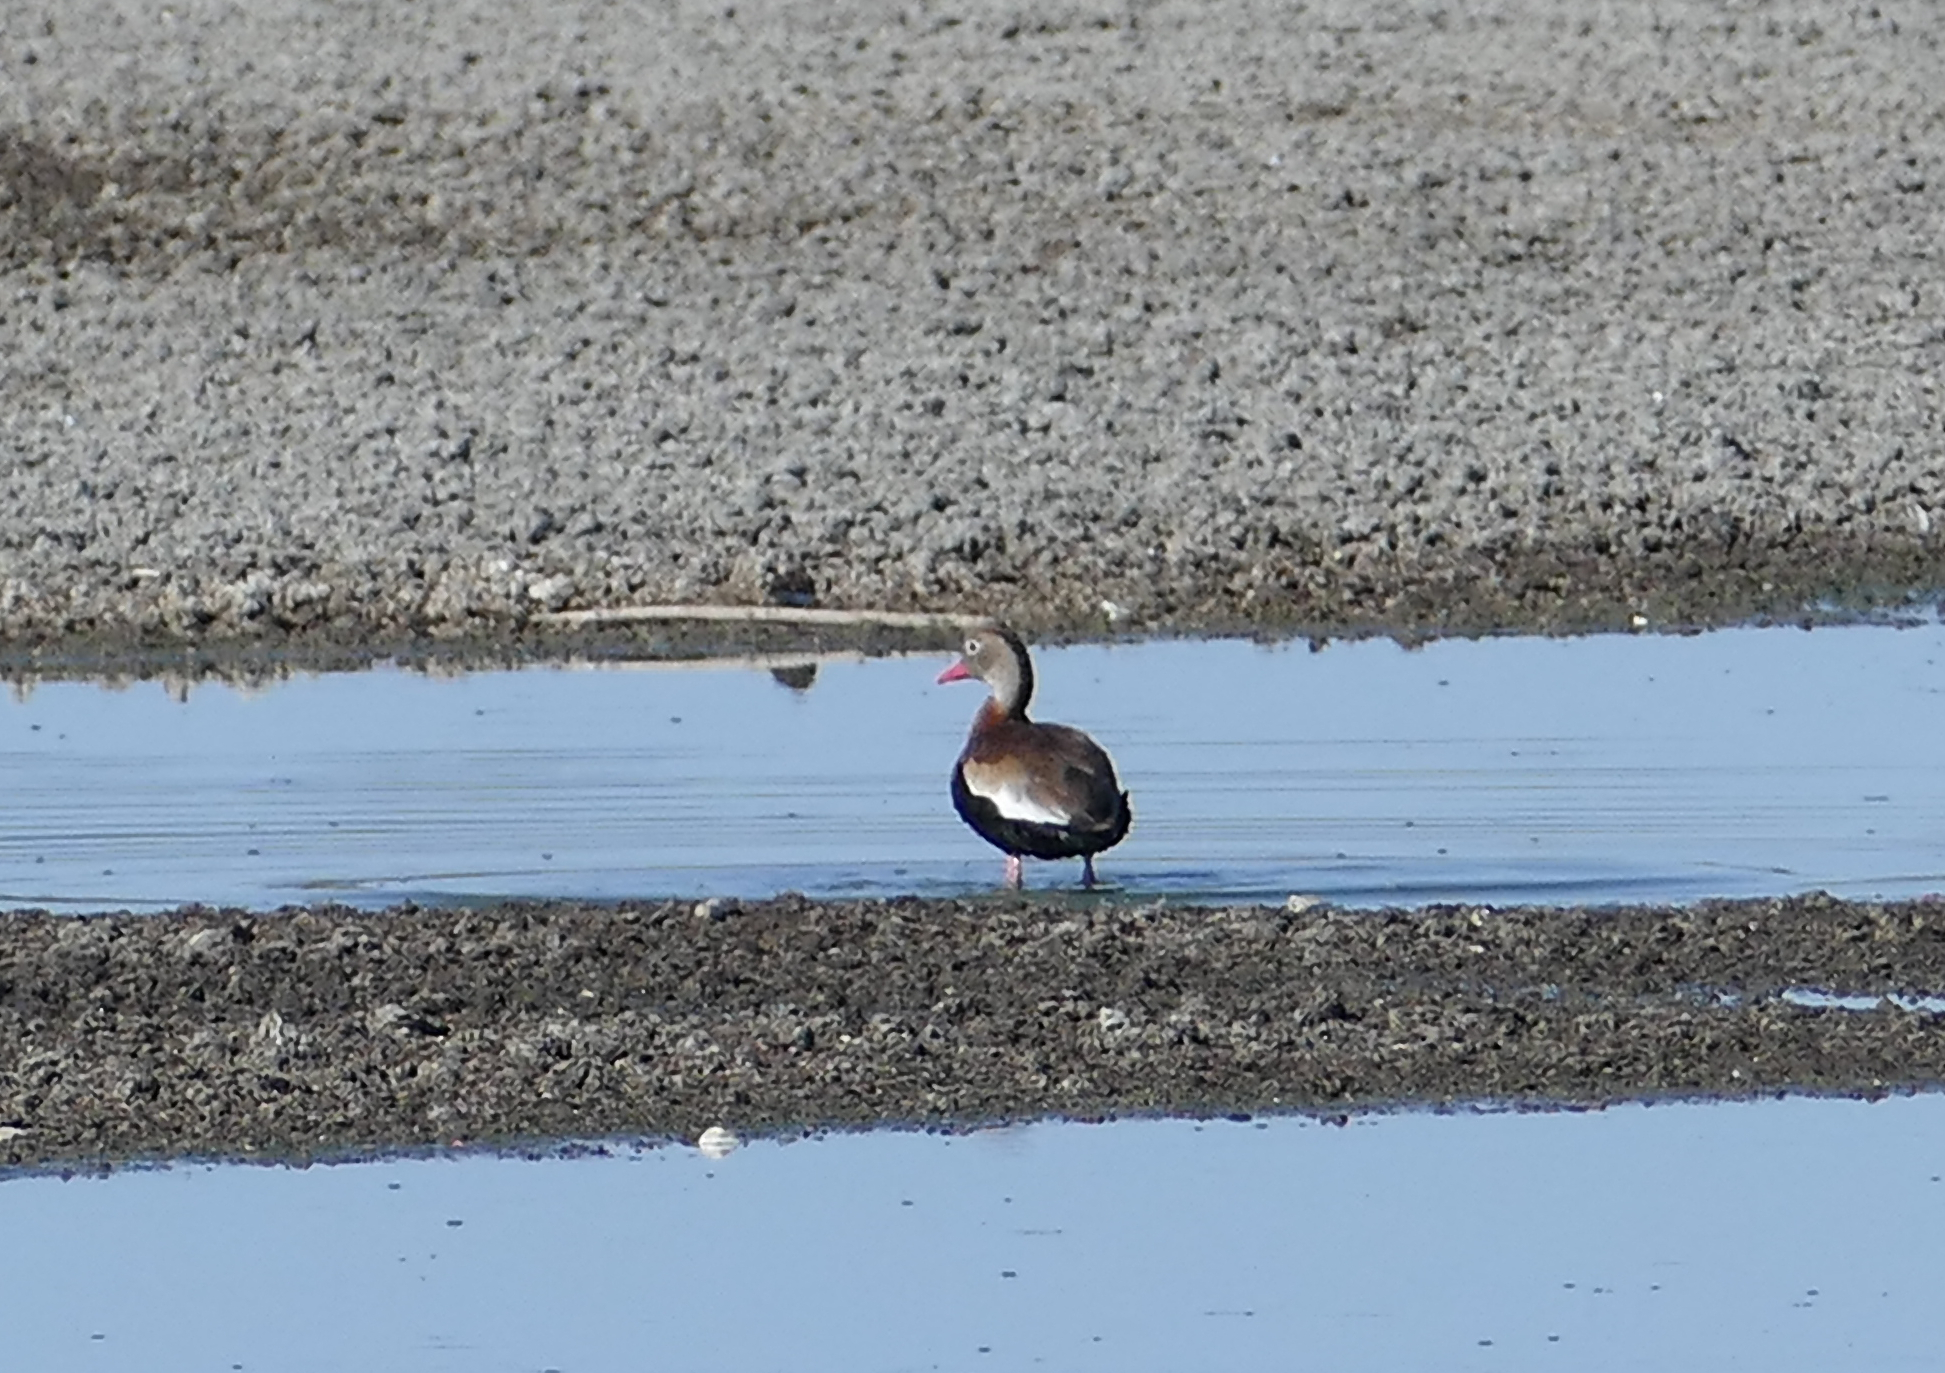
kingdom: Animalia
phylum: Chordata
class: Aves
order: Anseriformes
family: Anatidae
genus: Dendrocygna
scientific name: Dendrocygna autumnalis
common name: Black-bellied whistling duck
